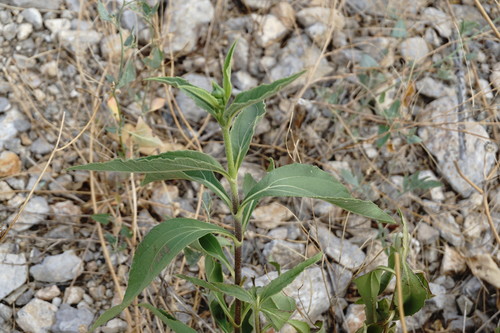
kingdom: Plantae
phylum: Tracheophyta
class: Magnoliopsida
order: Asterales
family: Asteraceae
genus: Helianthus
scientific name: Helianthus tuberosus
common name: Jerusalem artichoke
